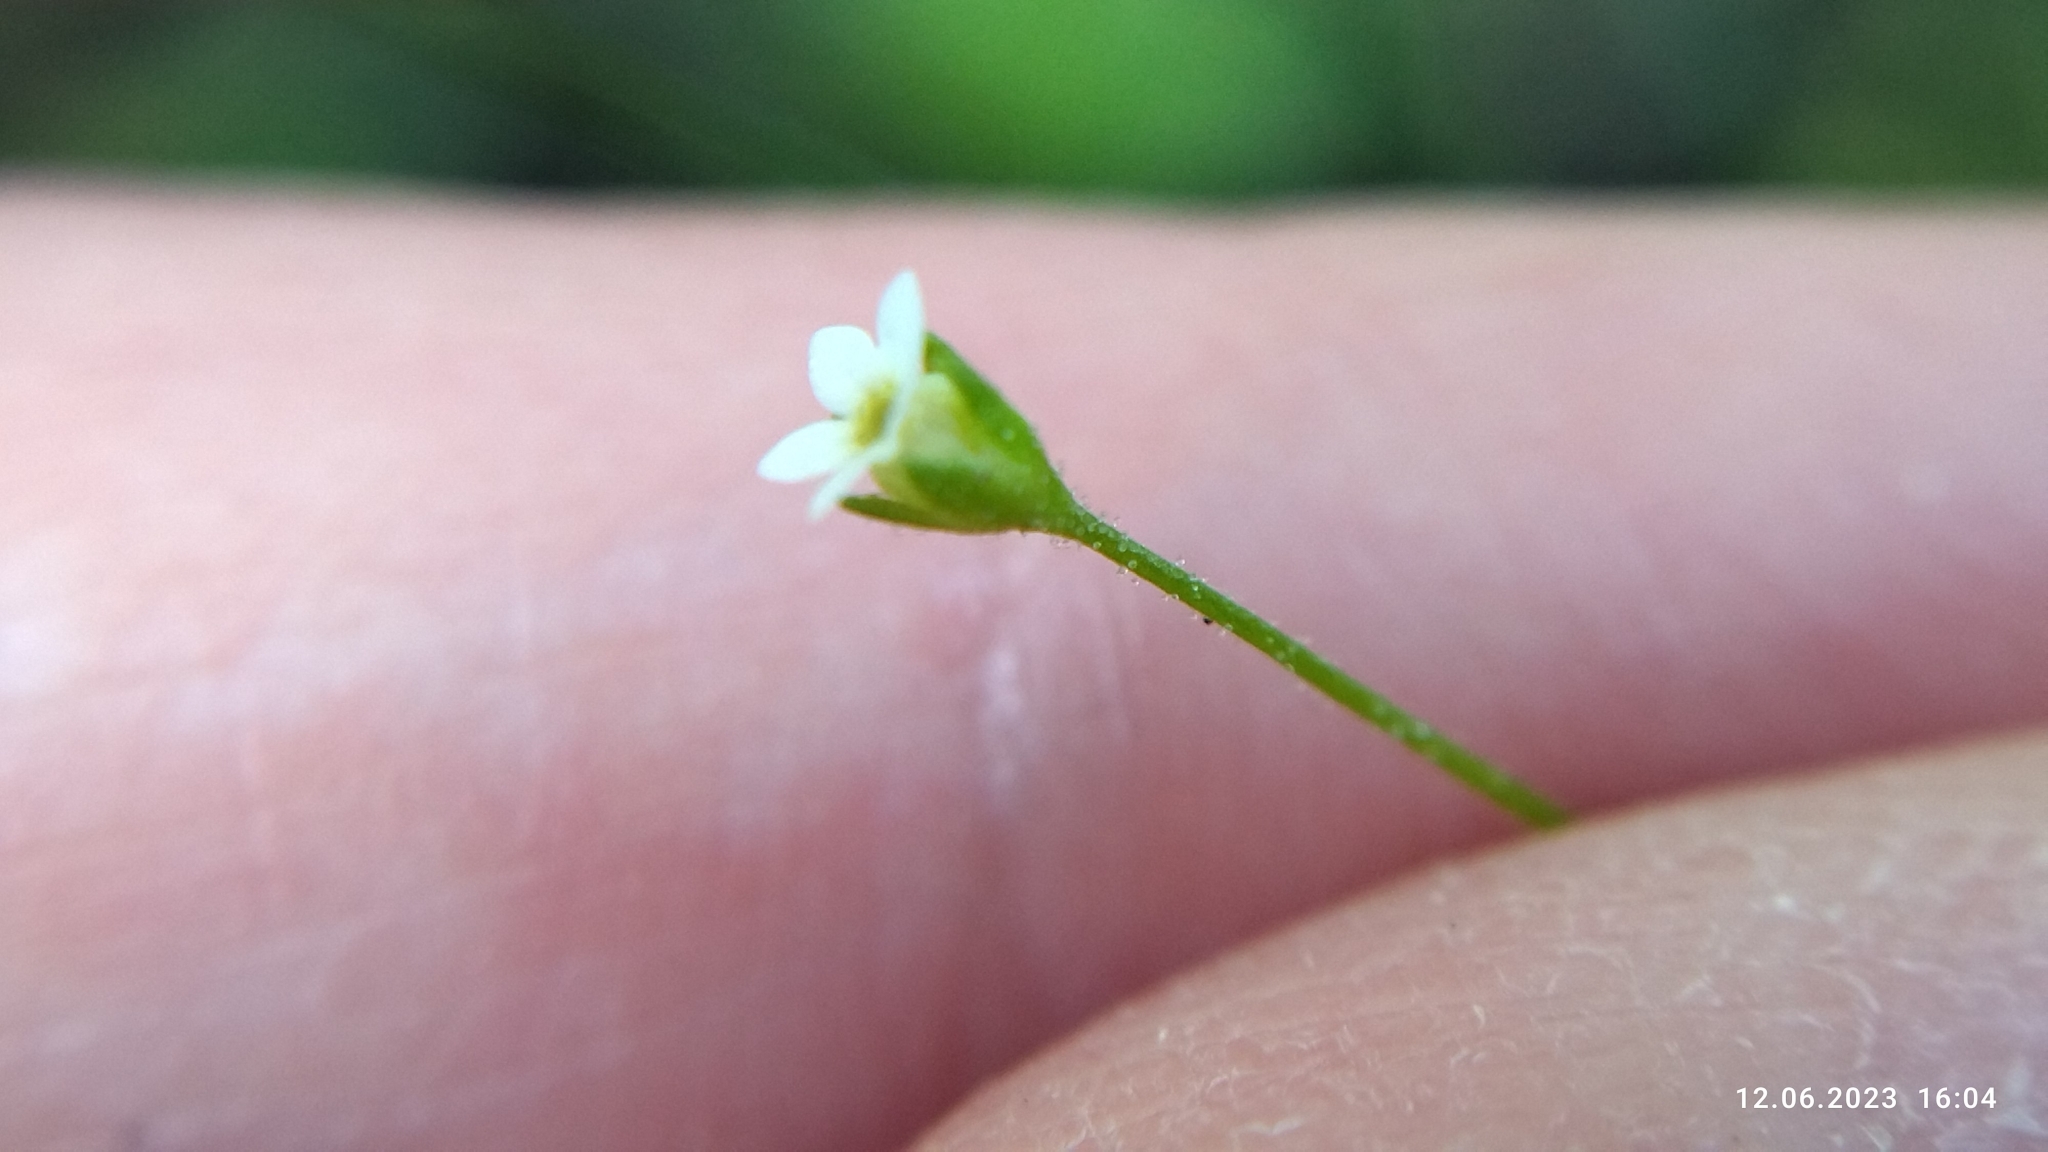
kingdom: Plantae
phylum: Tracheophyta
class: Magnoliopsida
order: Ericales
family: Primulaceae
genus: Androsace
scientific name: Androsace filiformis
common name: Filiform rock jasmine
